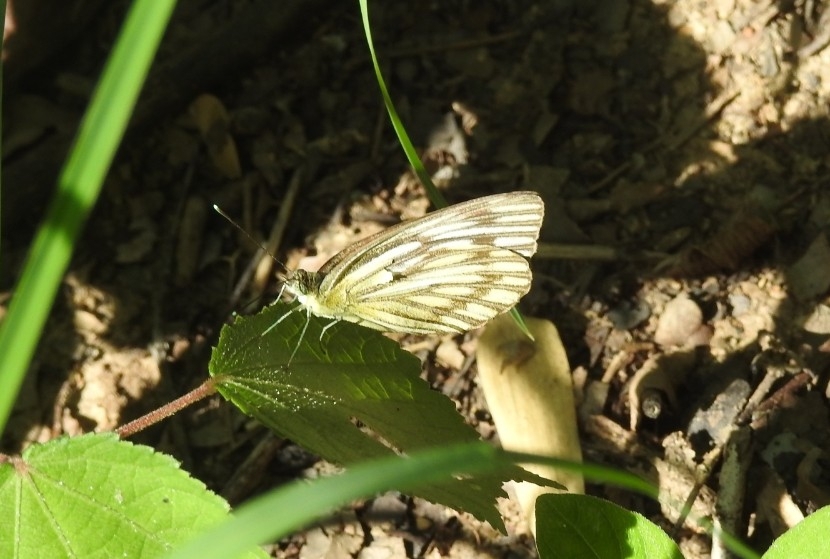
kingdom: Animalia
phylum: Arthropoda
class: Insecta
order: Lepidoptera
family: Pieridae
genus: Cepora
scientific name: Cepora nerissa
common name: Common gull
